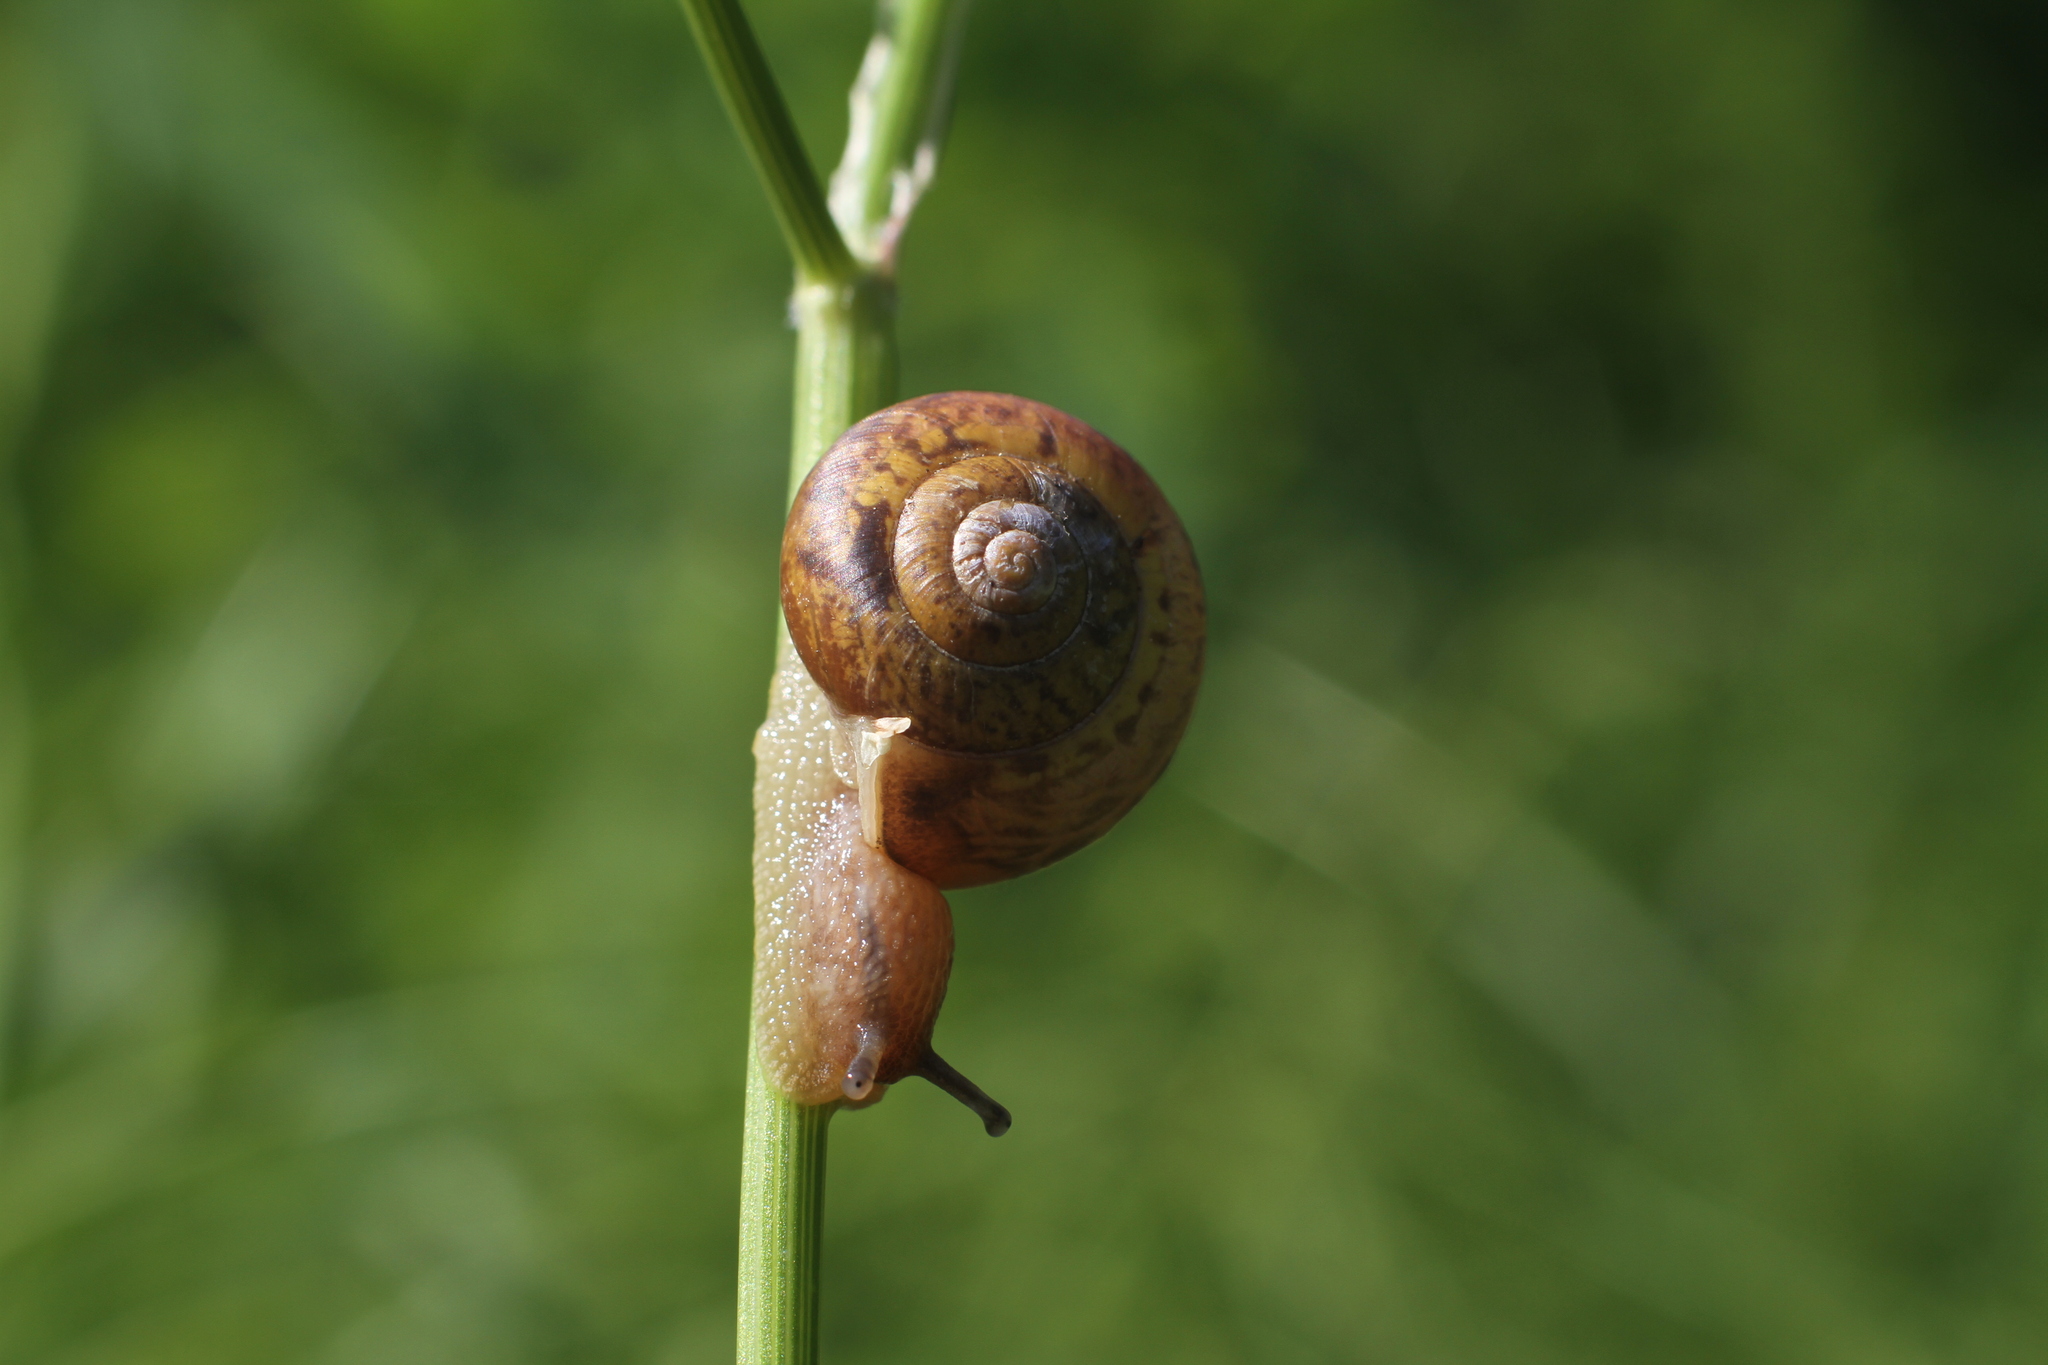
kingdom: Animalia
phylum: Mollusca
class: Gastropoda
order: Stylommatophora
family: Camaenidae
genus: Fruticicola
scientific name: Fruticicola fruticum
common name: Bush snail
